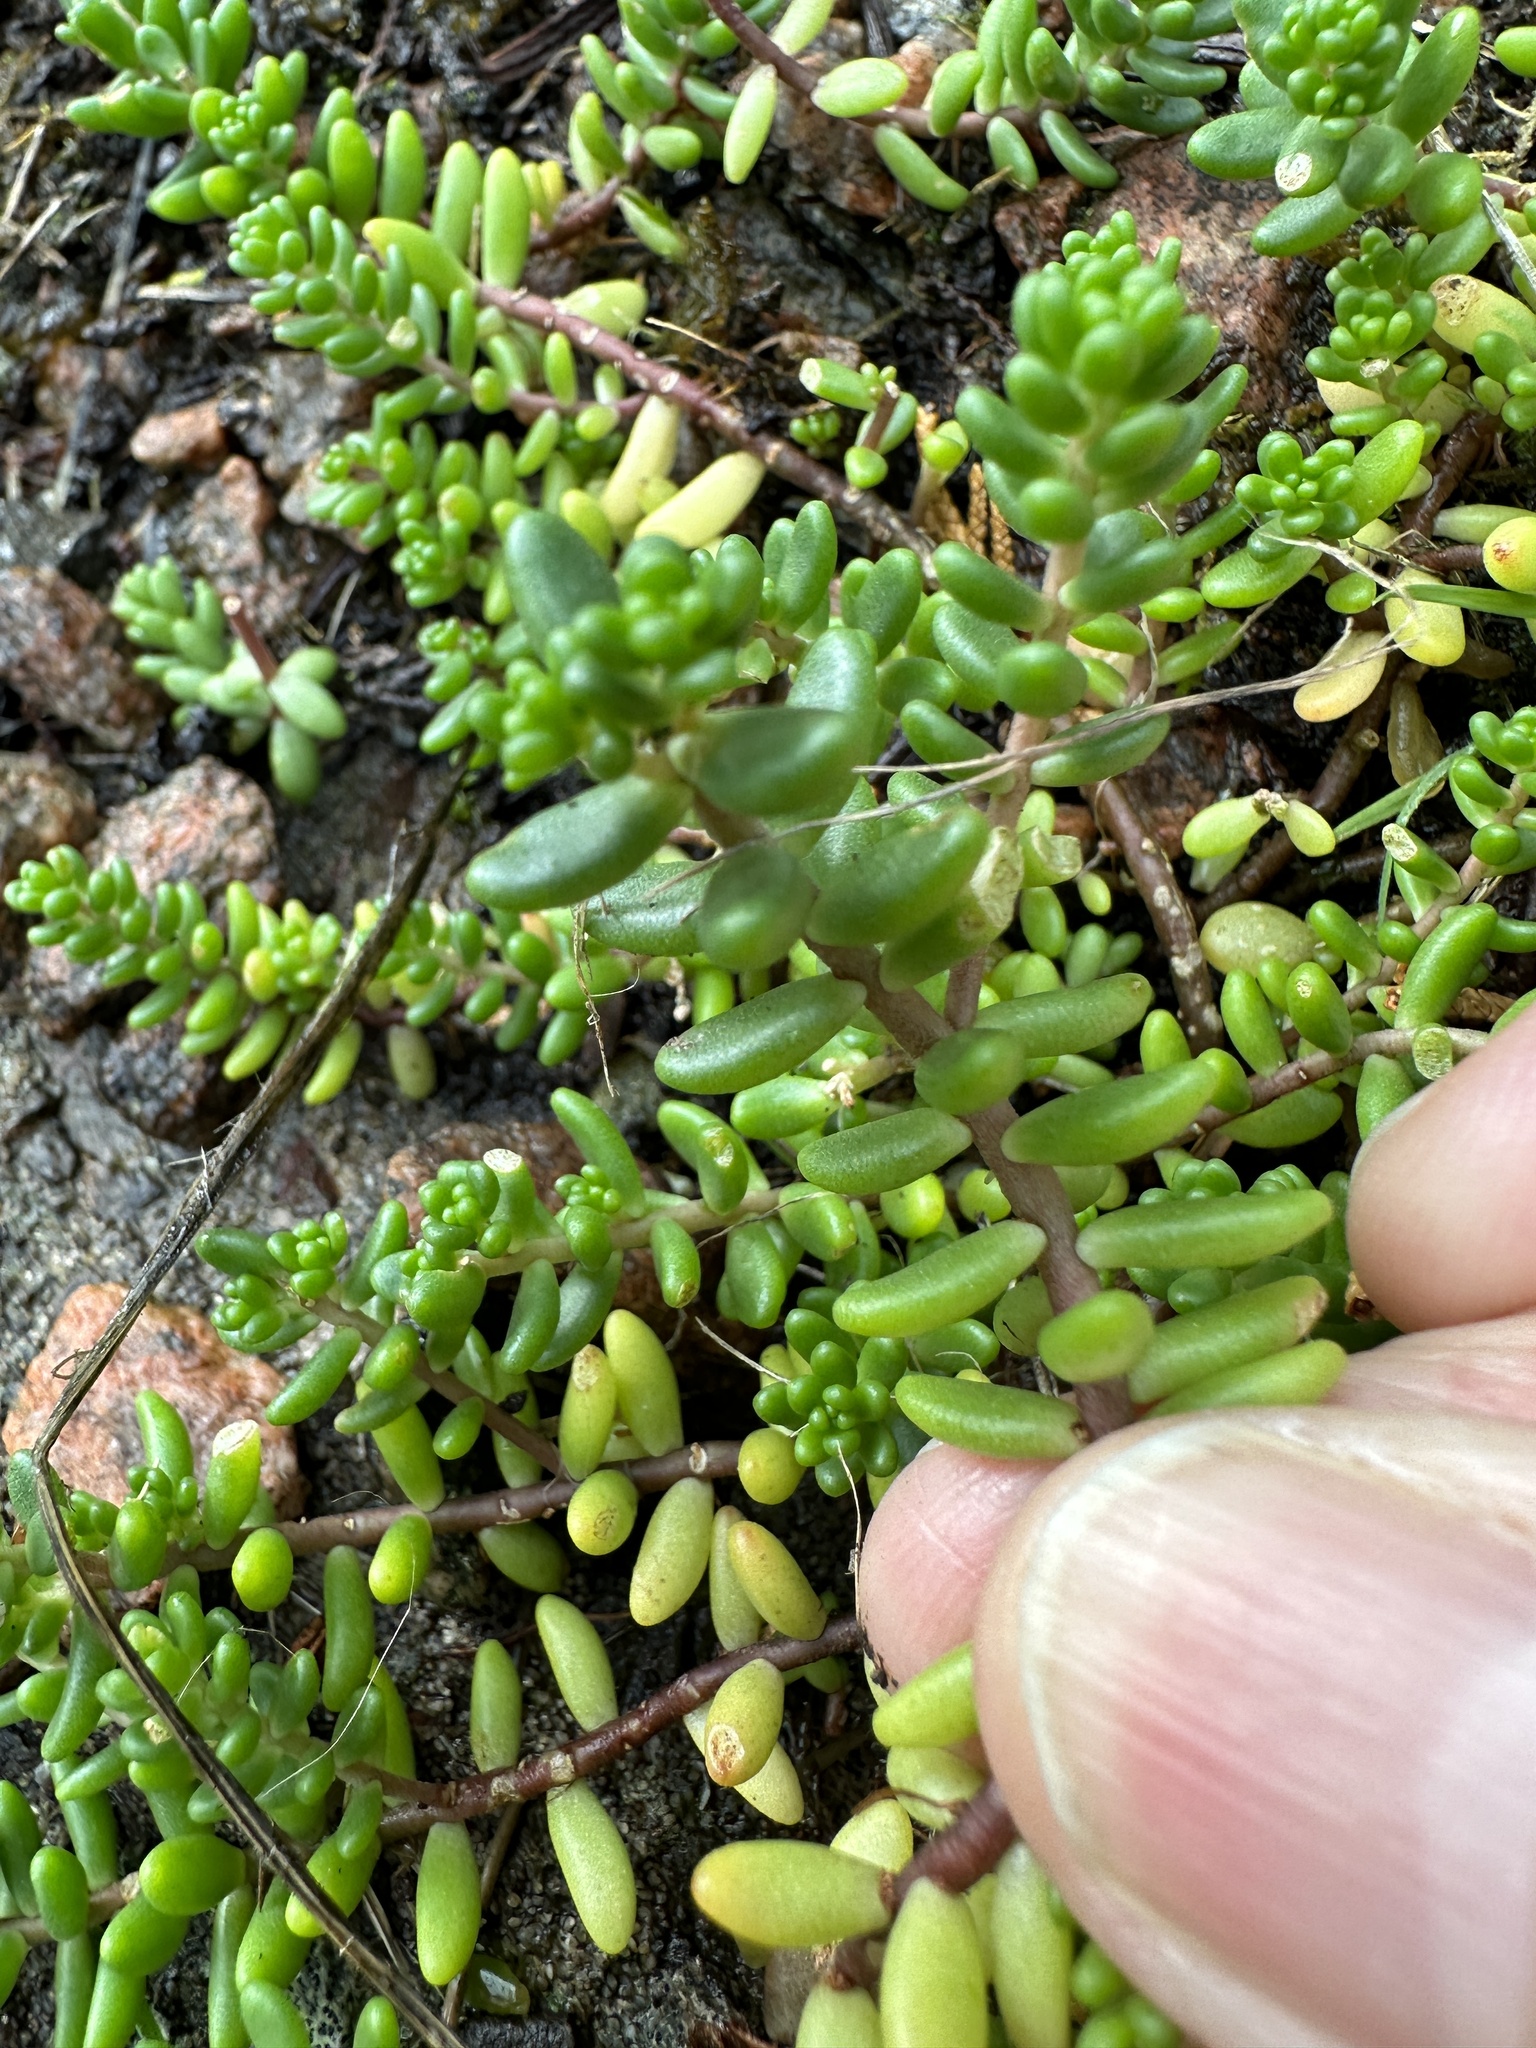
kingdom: Plantae
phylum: Tracheophyta
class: Magnoliopsida
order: Saxifragales
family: Crassulaceae
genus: Sedum
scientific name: Sedum album
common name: White stonecrop
